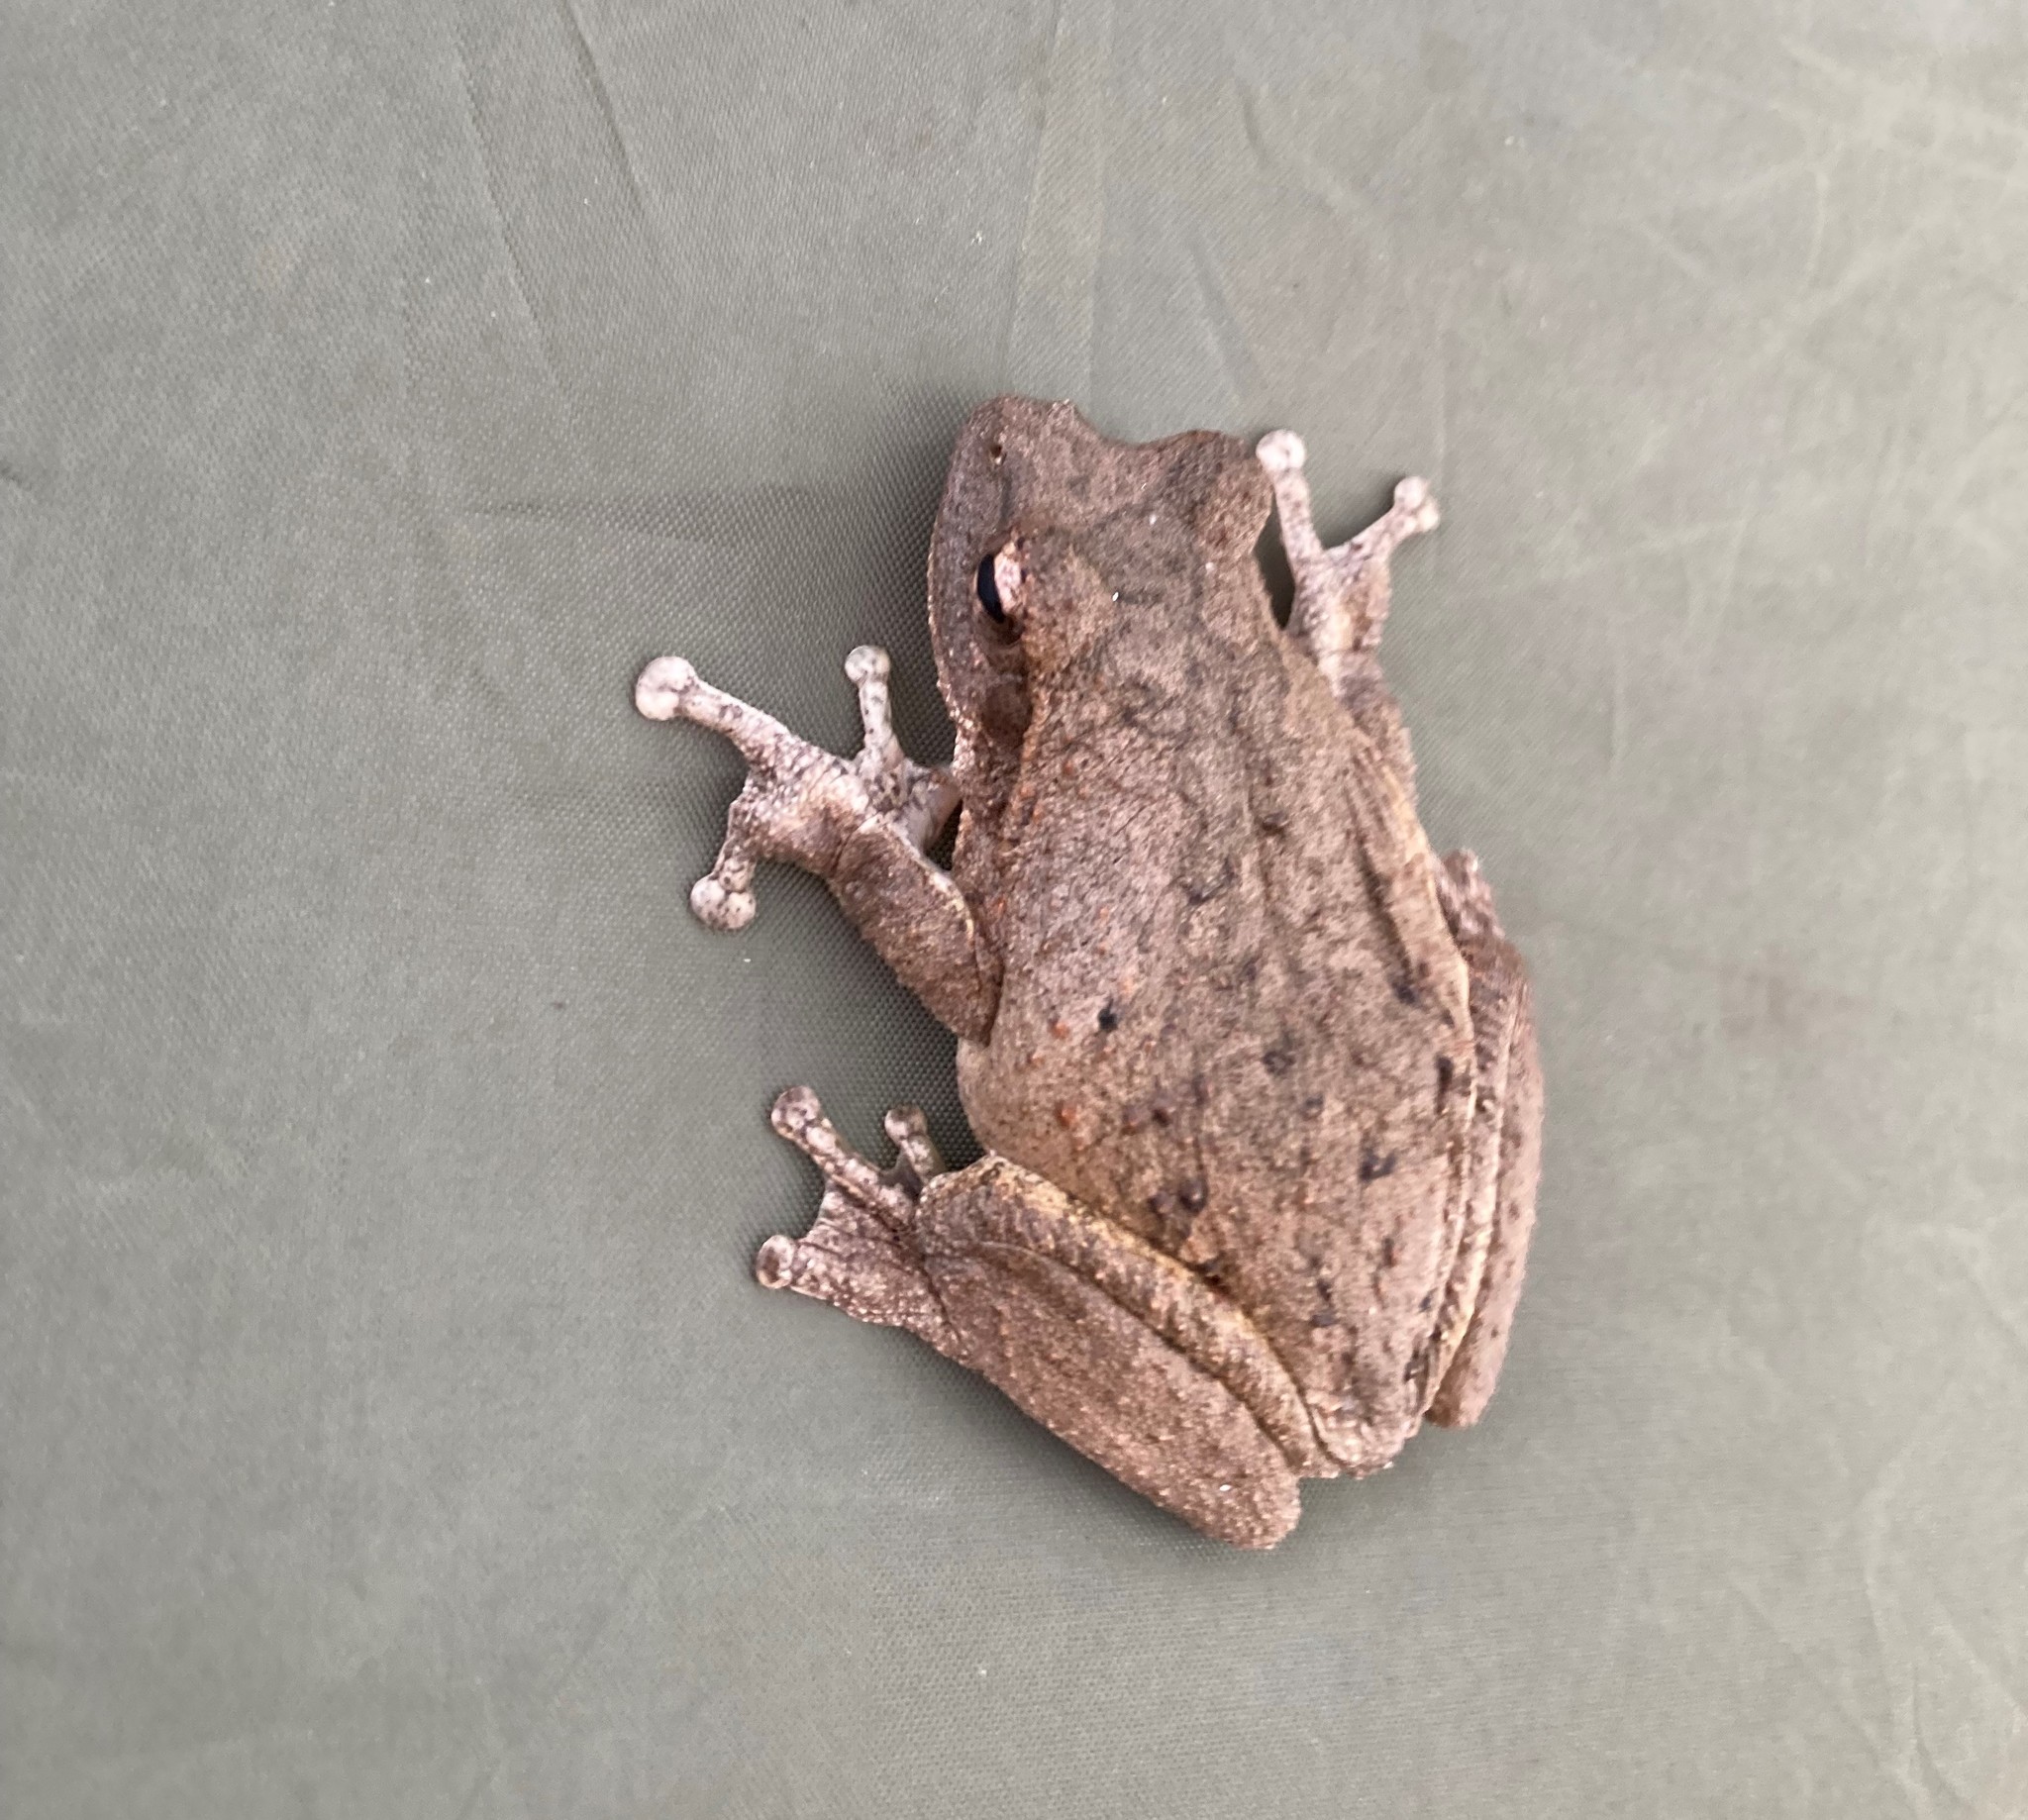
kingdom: Animalia
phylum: Chordata
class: Amphibia
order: Anura
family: Rhacophoridae
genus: Chiromantis
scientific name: Chiromantis xerampelina
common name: African gray treefrog
